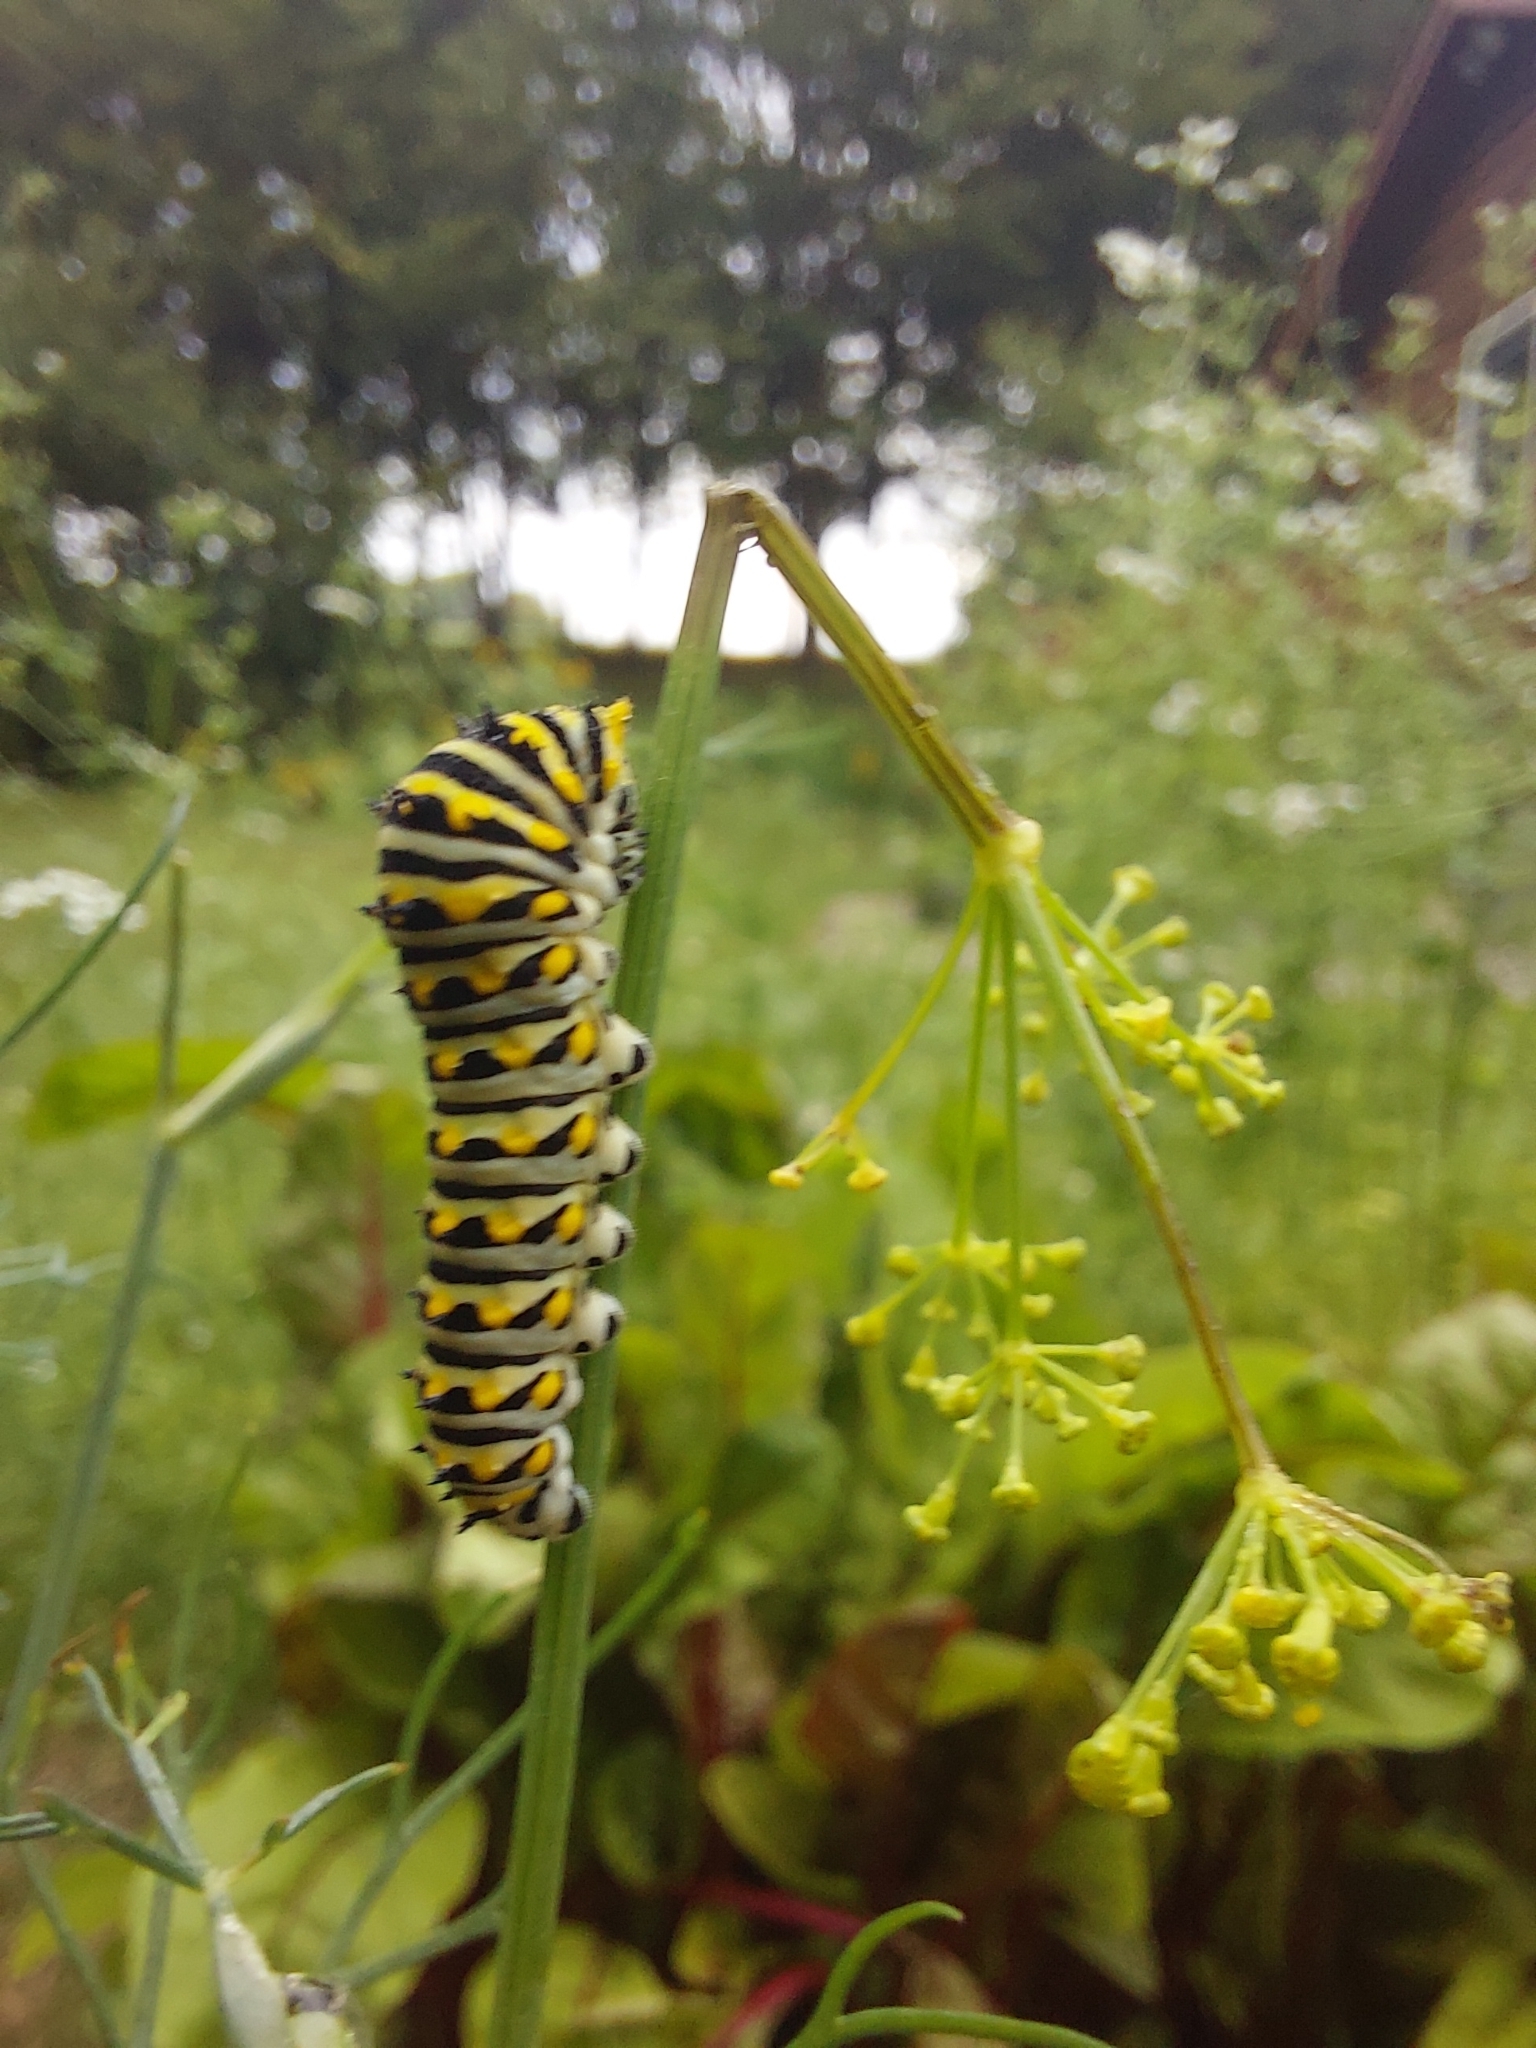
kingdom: Animalia
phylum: Arthropoda
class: Insecta
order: Lepidoptera
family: Papilionidae
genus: Papilio
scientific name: Papilio polyxenes
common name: Black swallowtail
